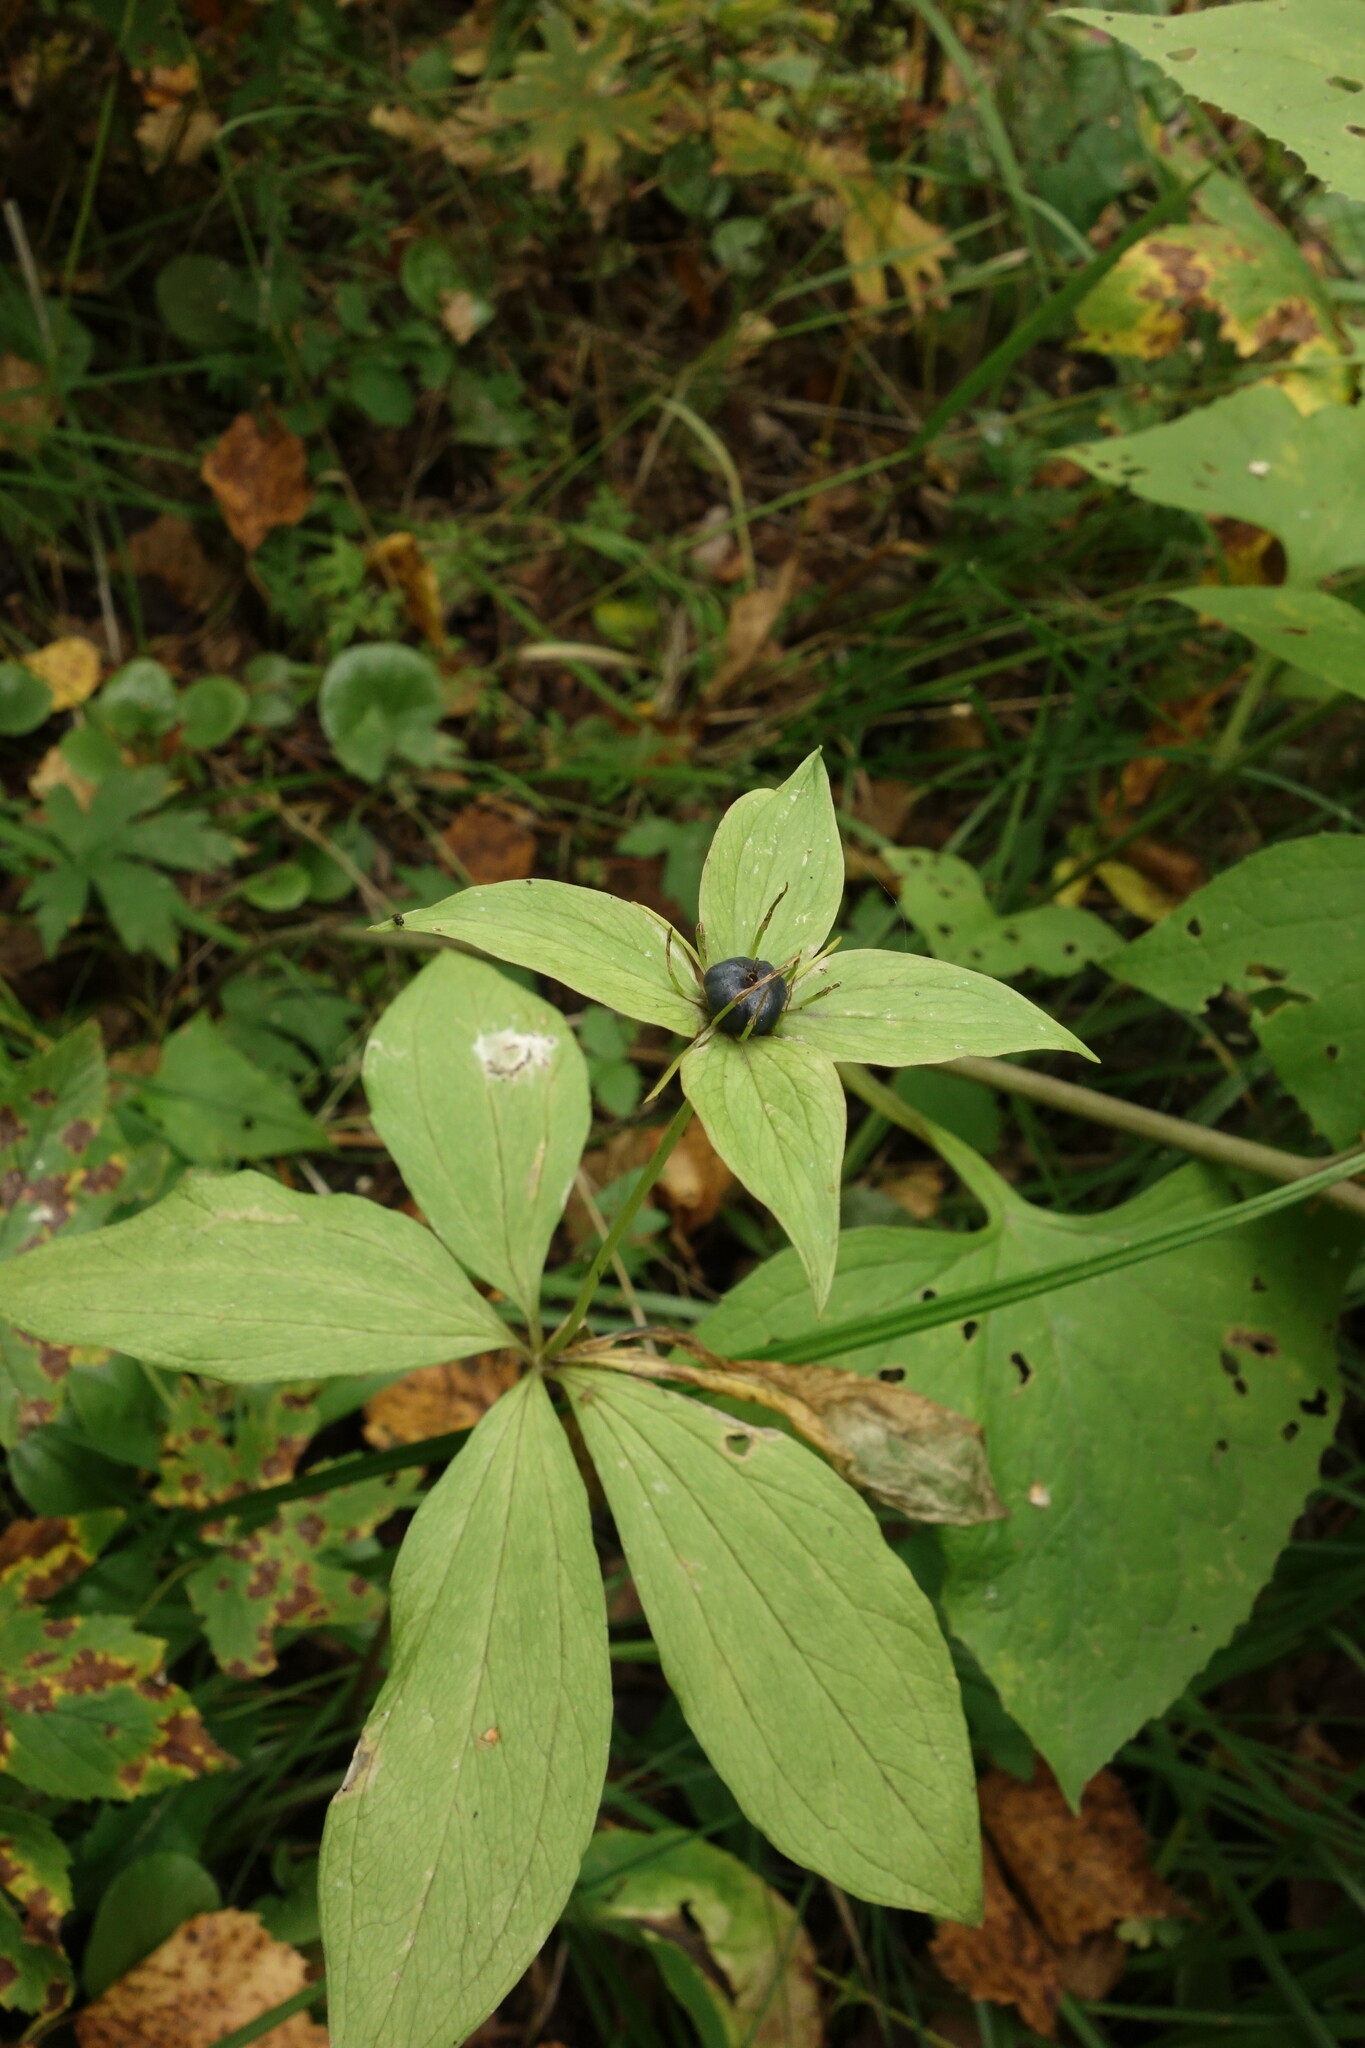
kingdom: Plantae
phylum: Tracheophyta
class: Liliopsida
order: Liliales
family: Melanthiaceae
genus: Paris
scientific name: Paris verticillata
